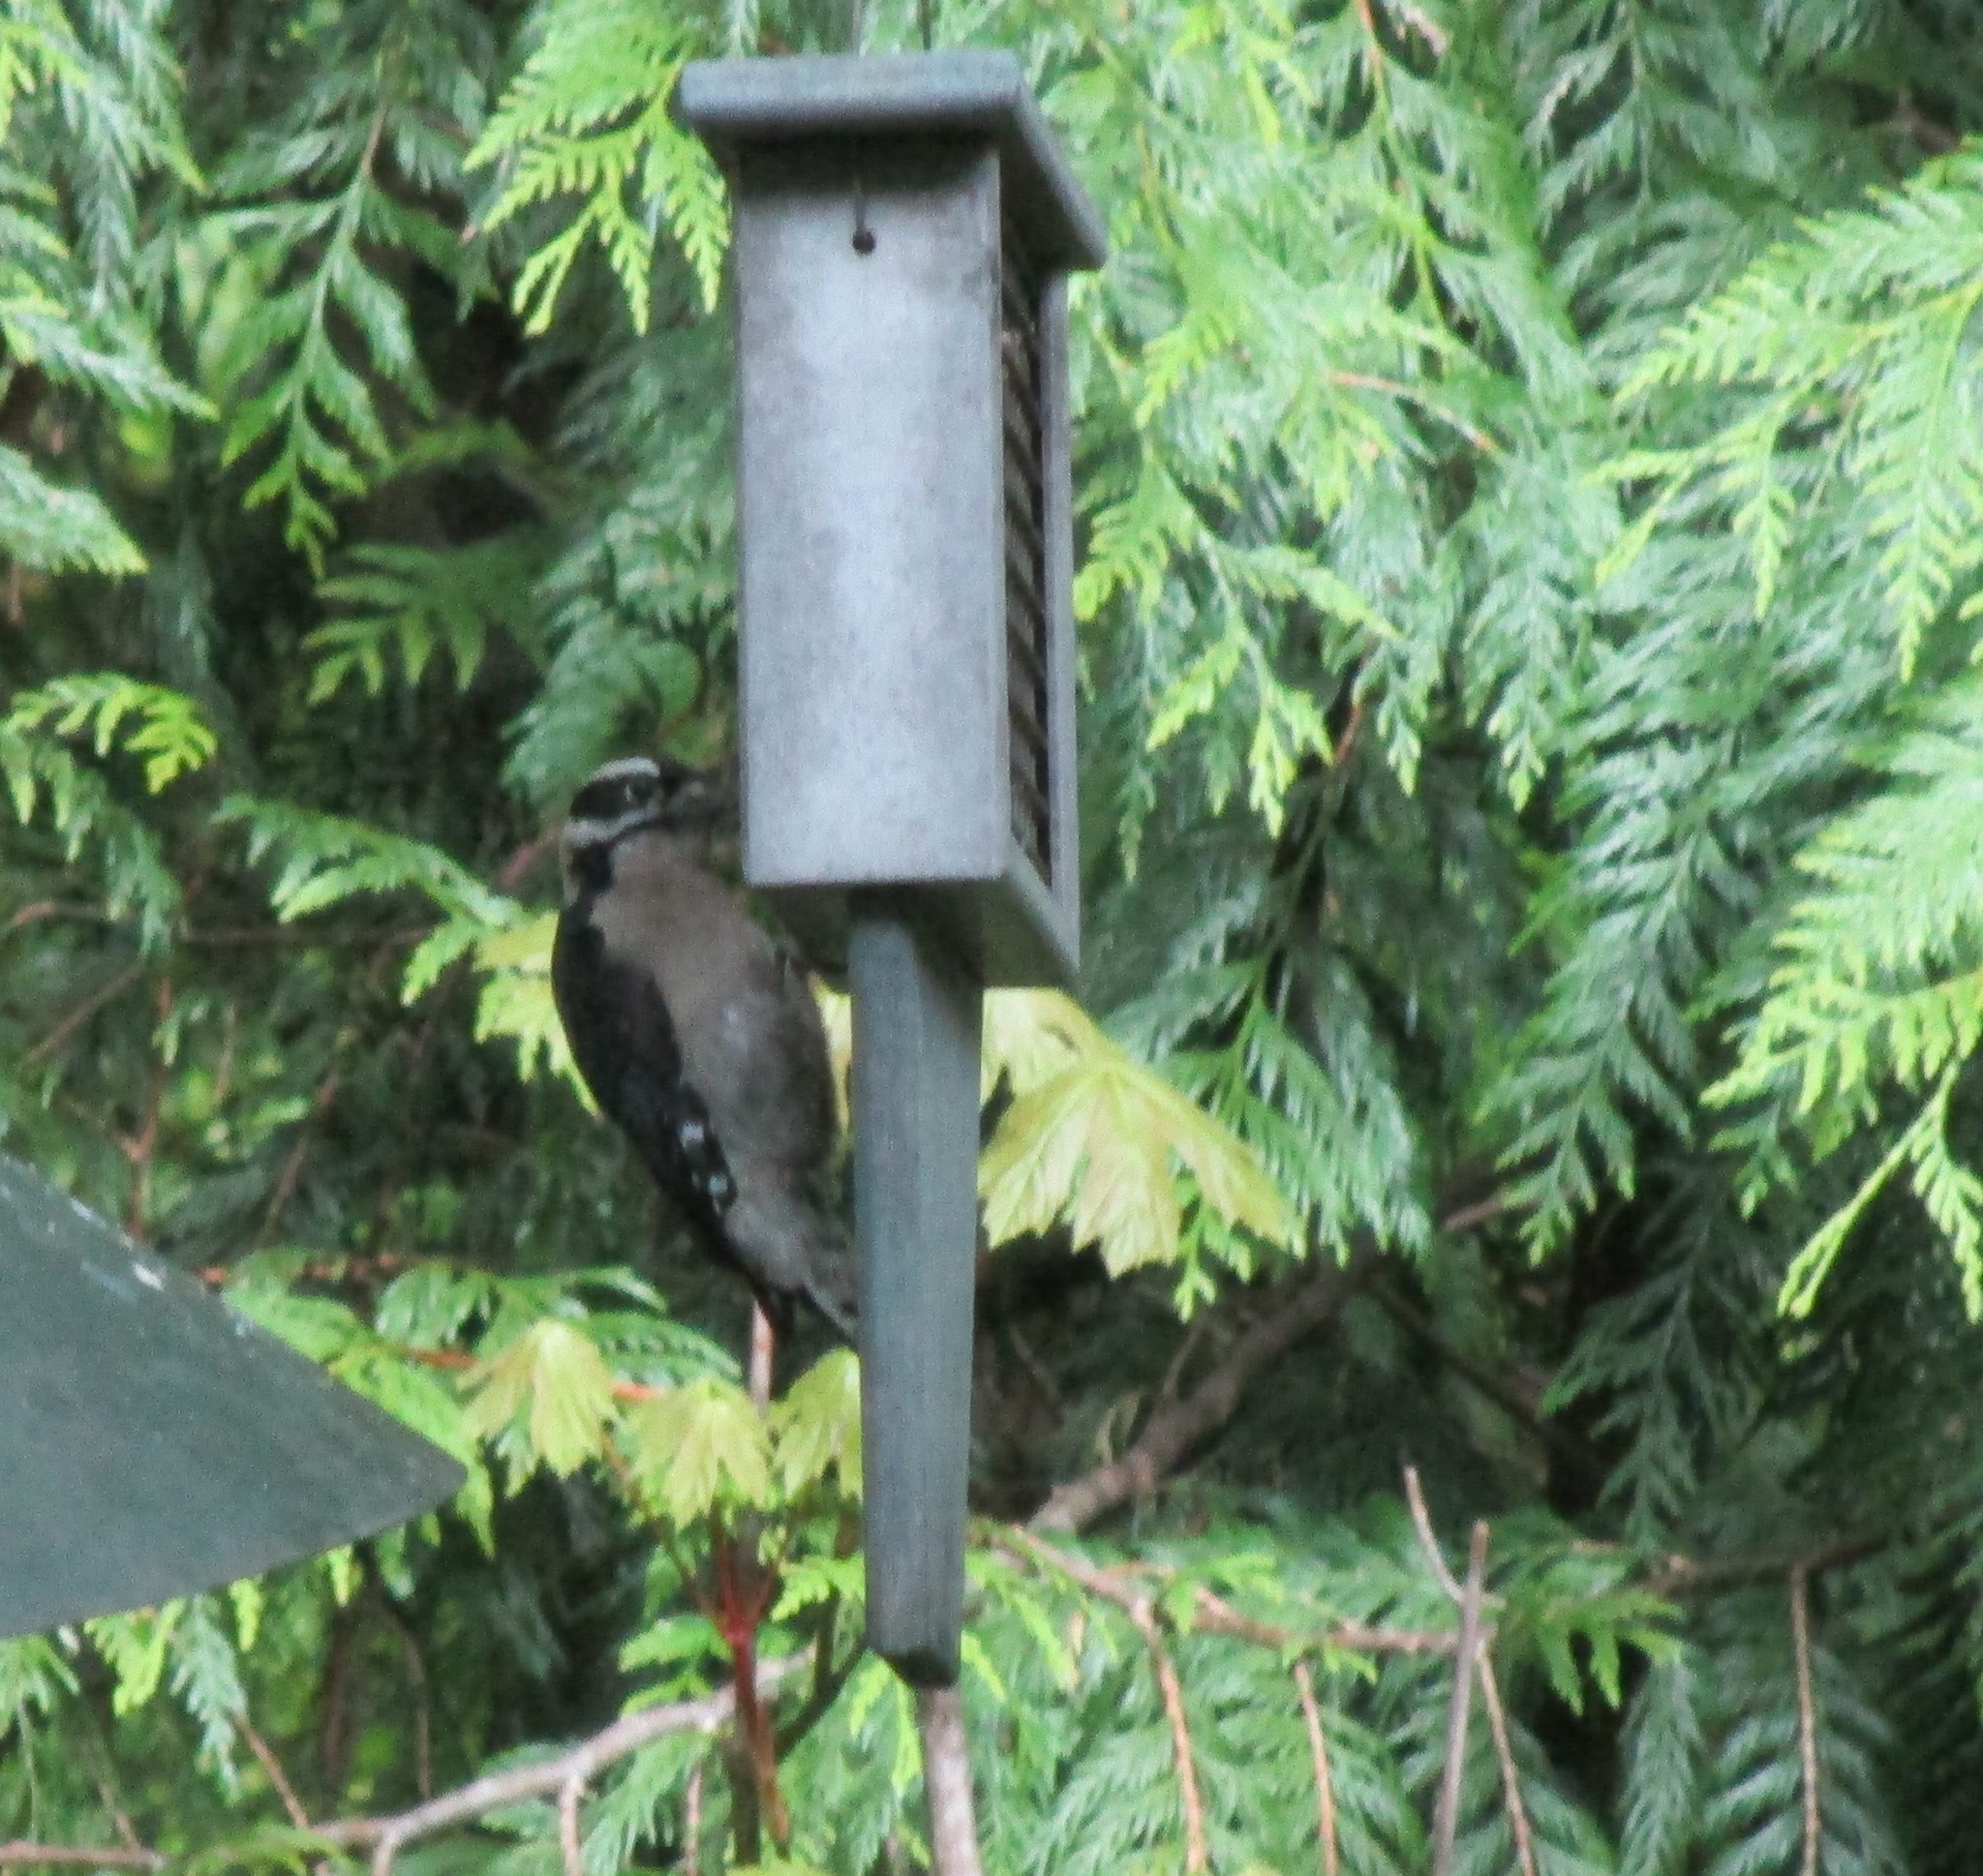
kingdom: Animalia
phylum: Chordata
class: Aves
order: Piciformes
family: Picidae
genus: Dryobates
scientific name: Dryobates pubescens
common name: Downy woodpecker
